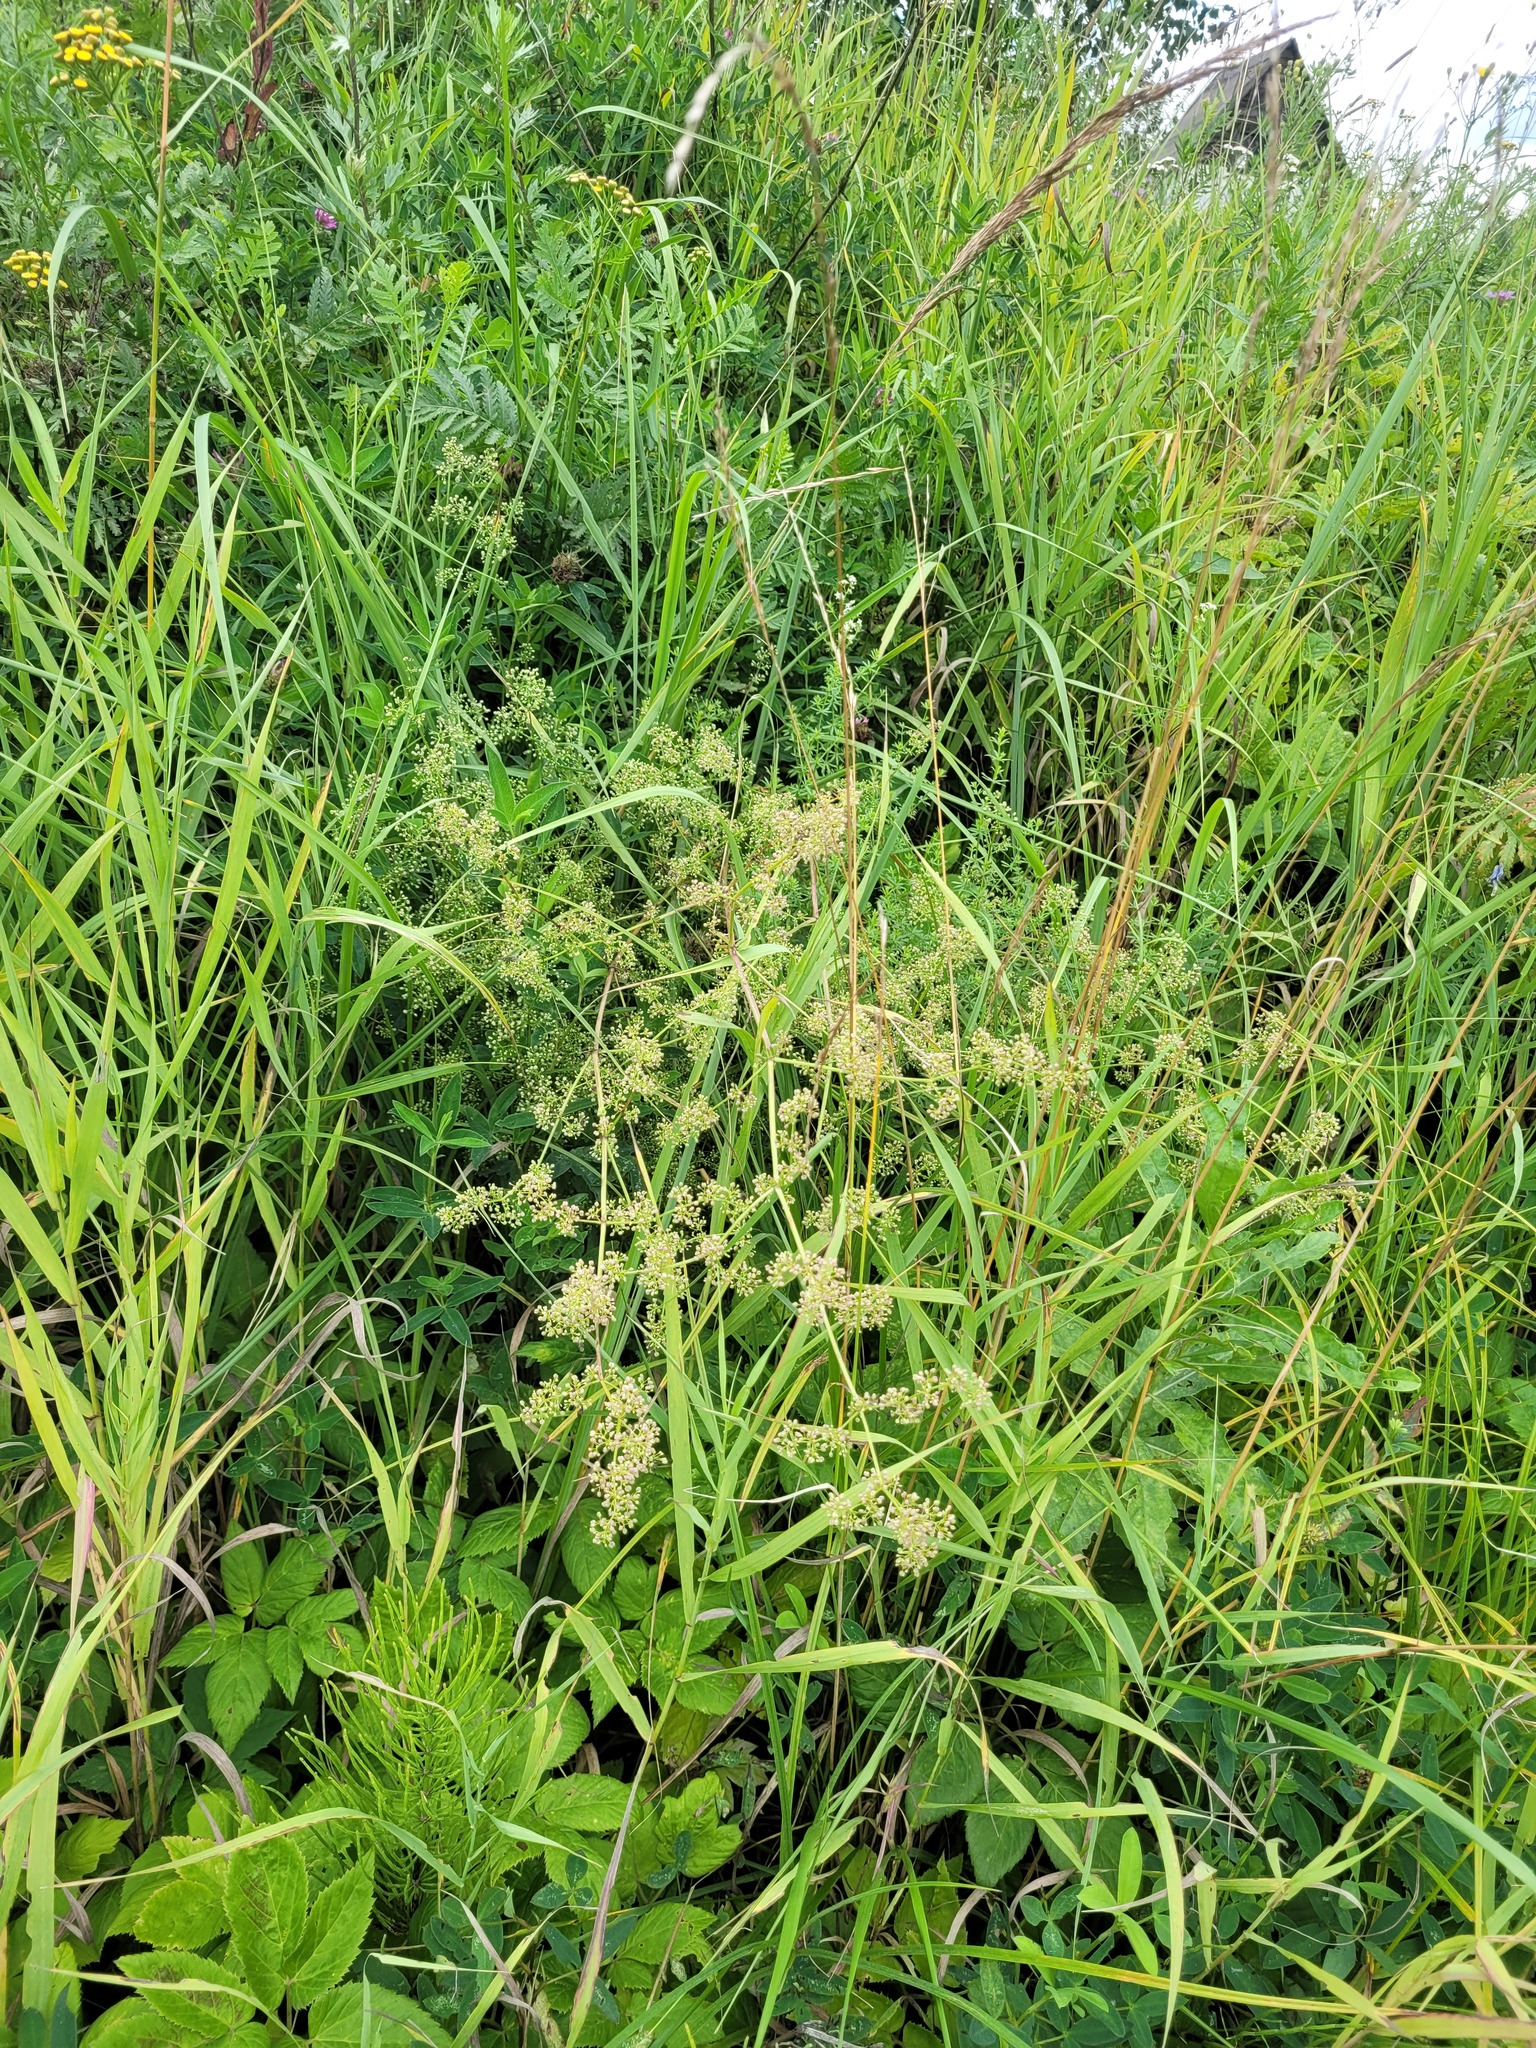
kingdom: Plantae
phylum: Tracheophyta
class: Magnoliopsida
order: Gentianales
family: Rubiaceae
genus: Galium
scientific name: Galium mollugo
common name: Hedge bedstraw
